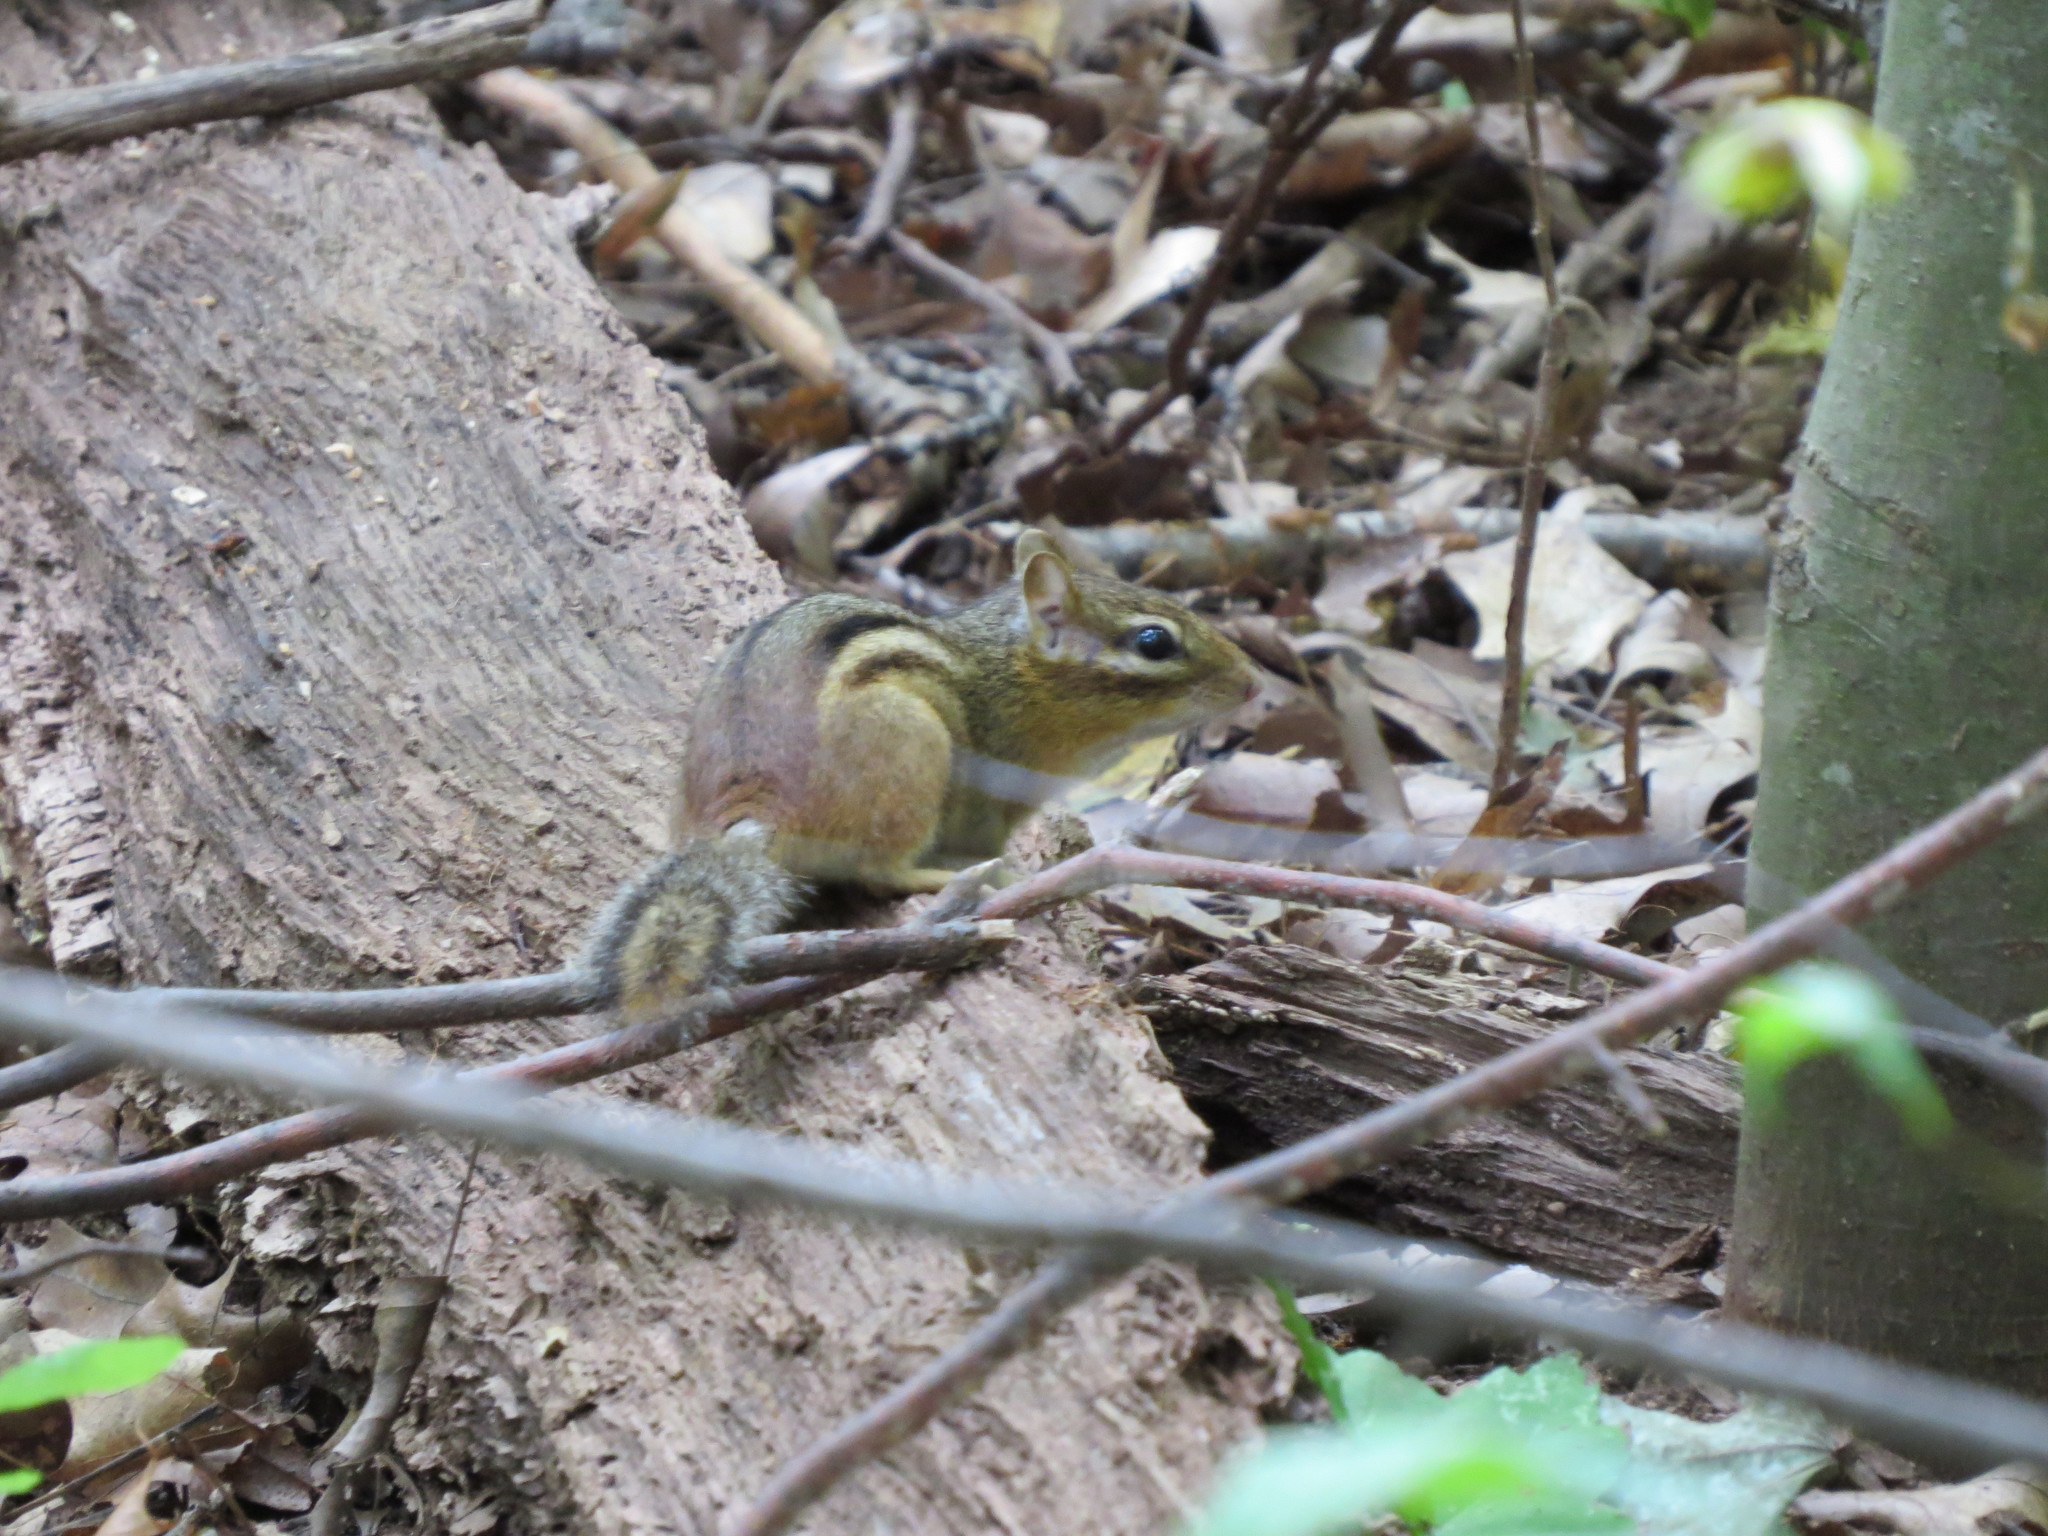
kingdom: Animalia
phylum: Chordata
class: Mammalia
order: Rodentia
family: Sciuridae
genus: Tamias
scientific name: Tamias striatus
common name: Eastern chipmunk
